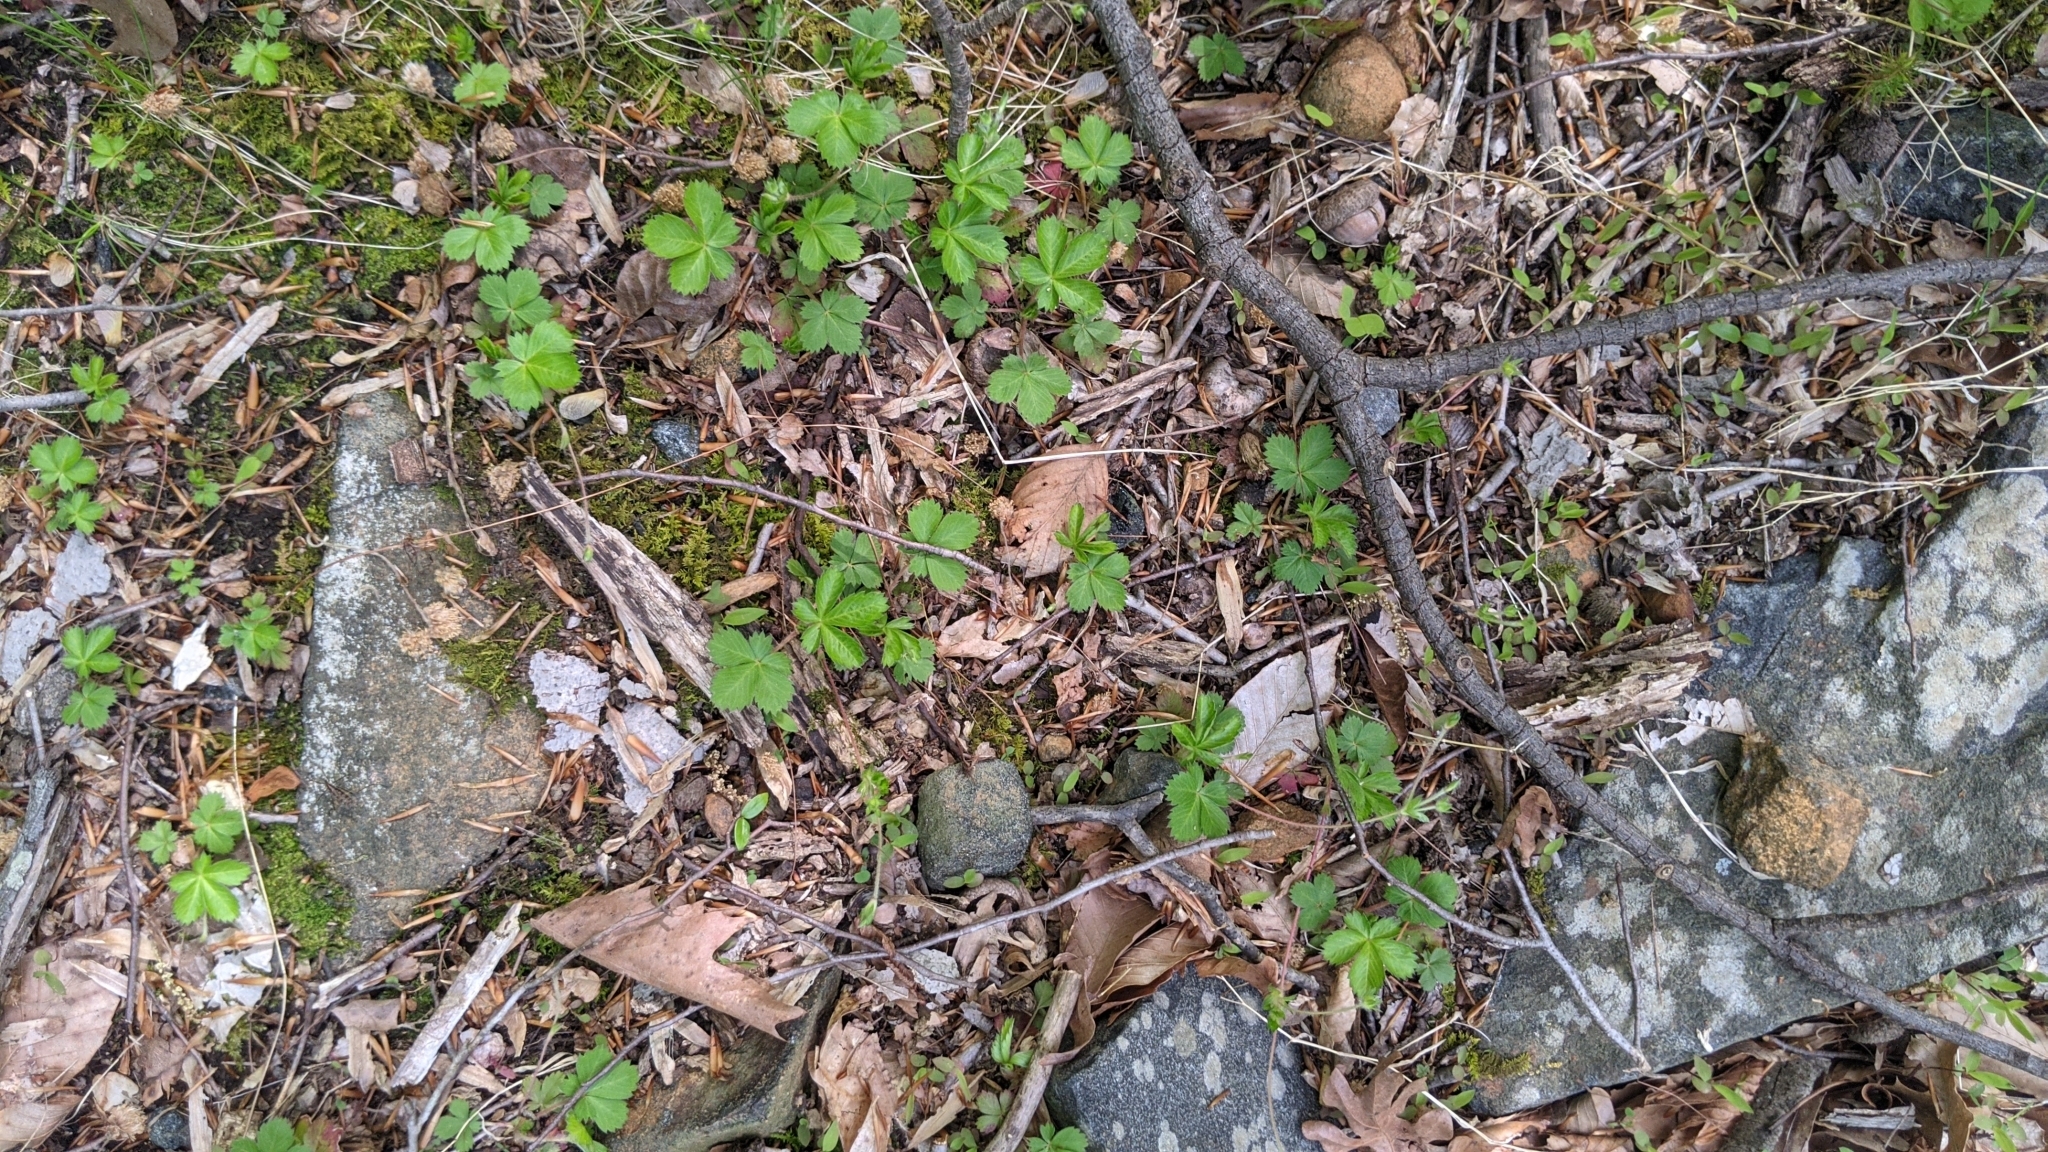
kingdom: Plantae
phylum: Tracheophyta
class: Magnoliopsida
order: Rosales
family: Rosaceae
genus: Potentilla
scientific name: Potentilla canadensis
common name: Canada cinquefoil
